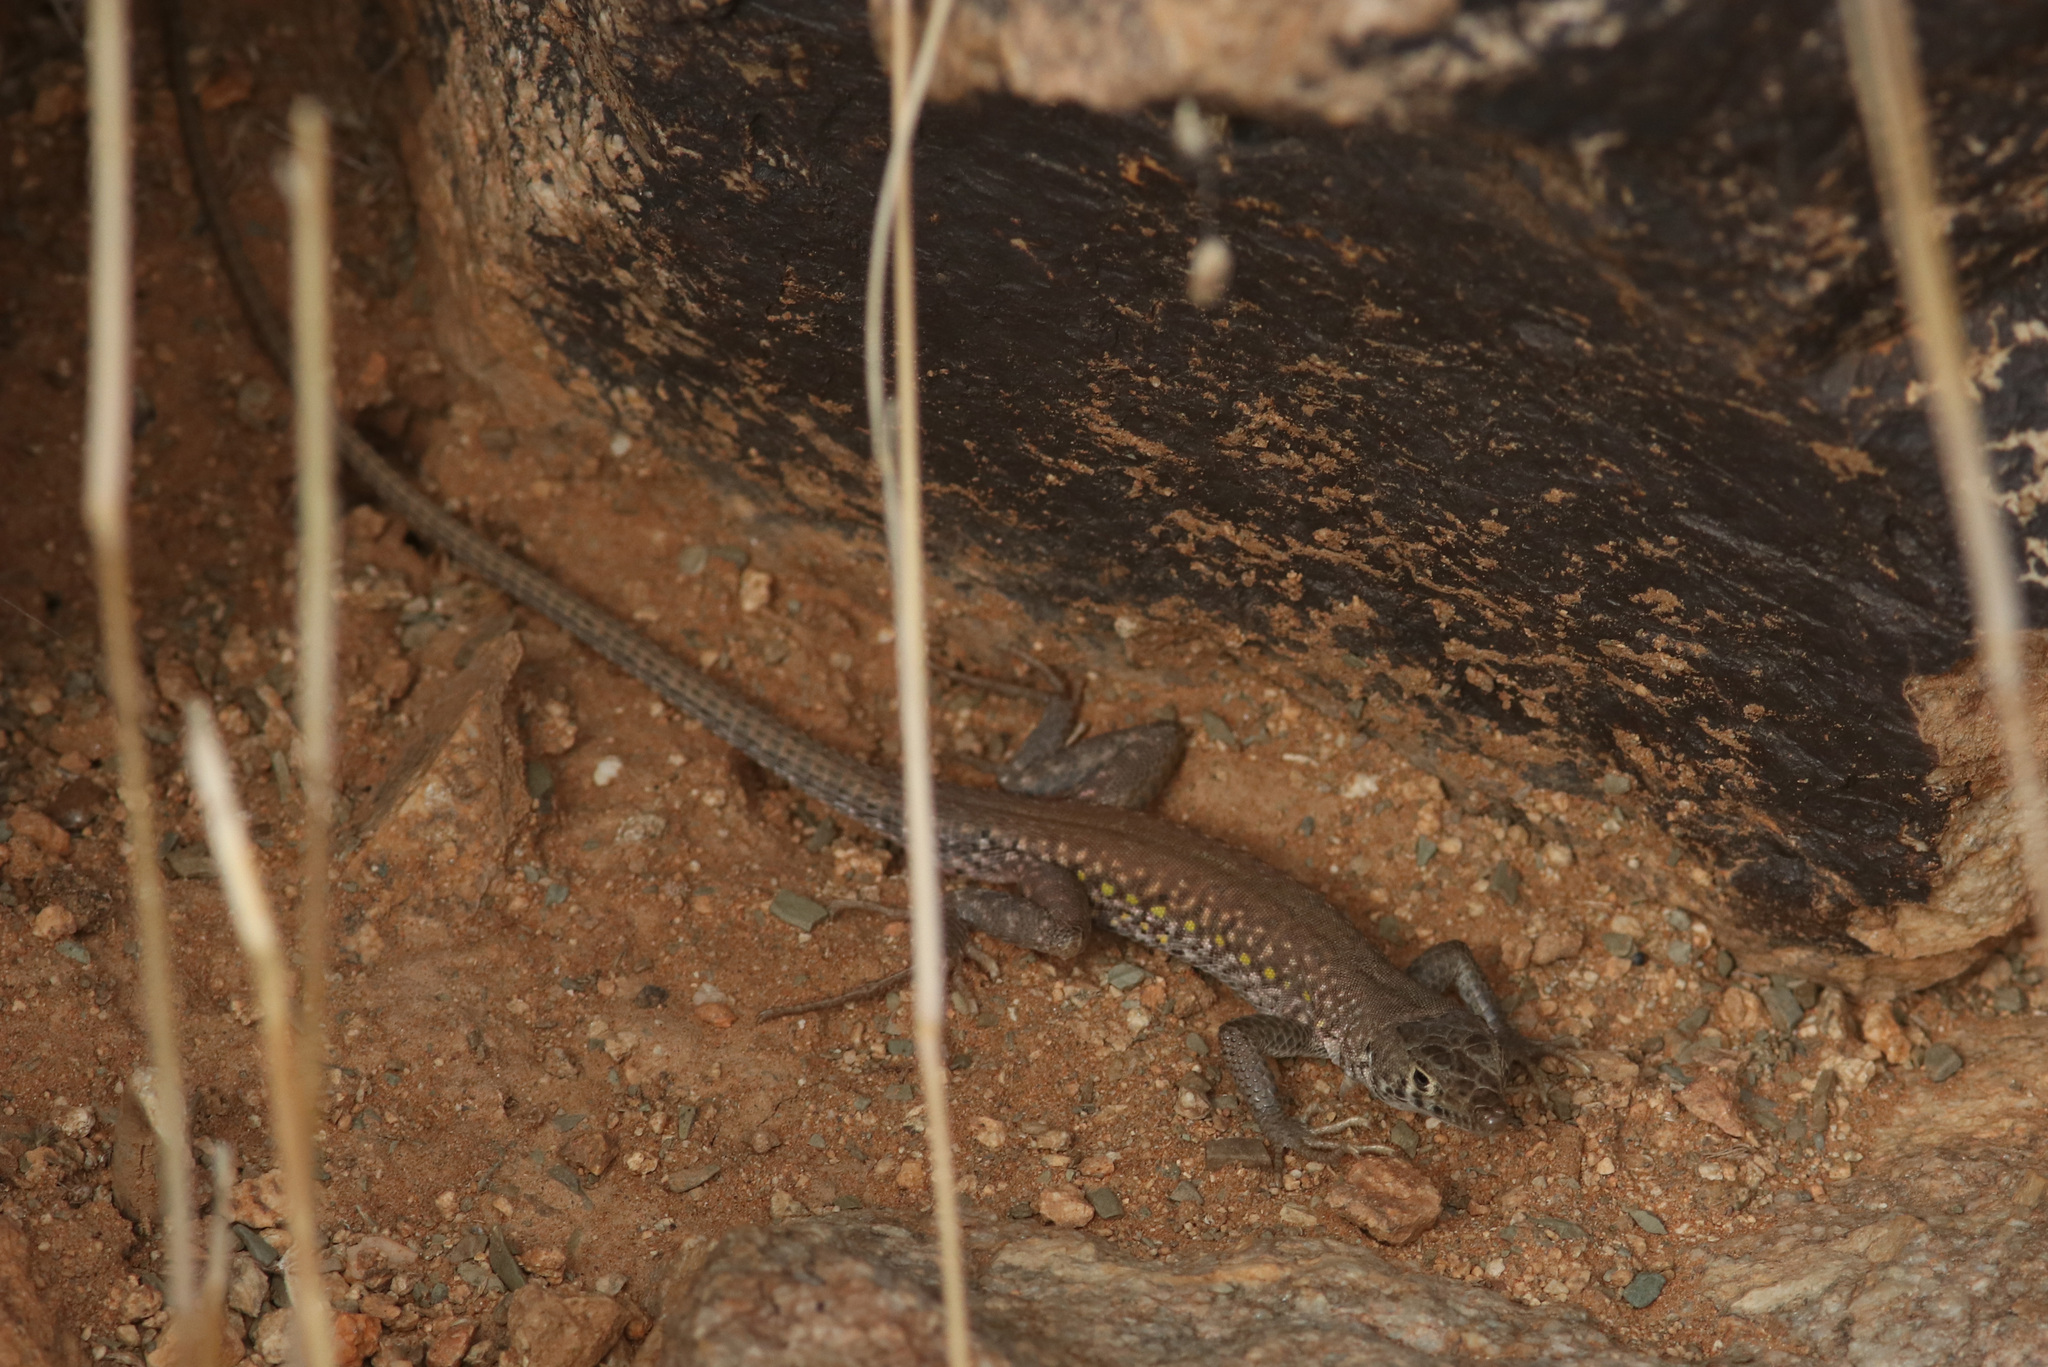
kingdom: Animalia
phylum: Chordata
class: Squamata
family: Lacertidae
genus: Pedioplanis
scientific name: Pedioplanis inornata
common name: Plain sand lizard
